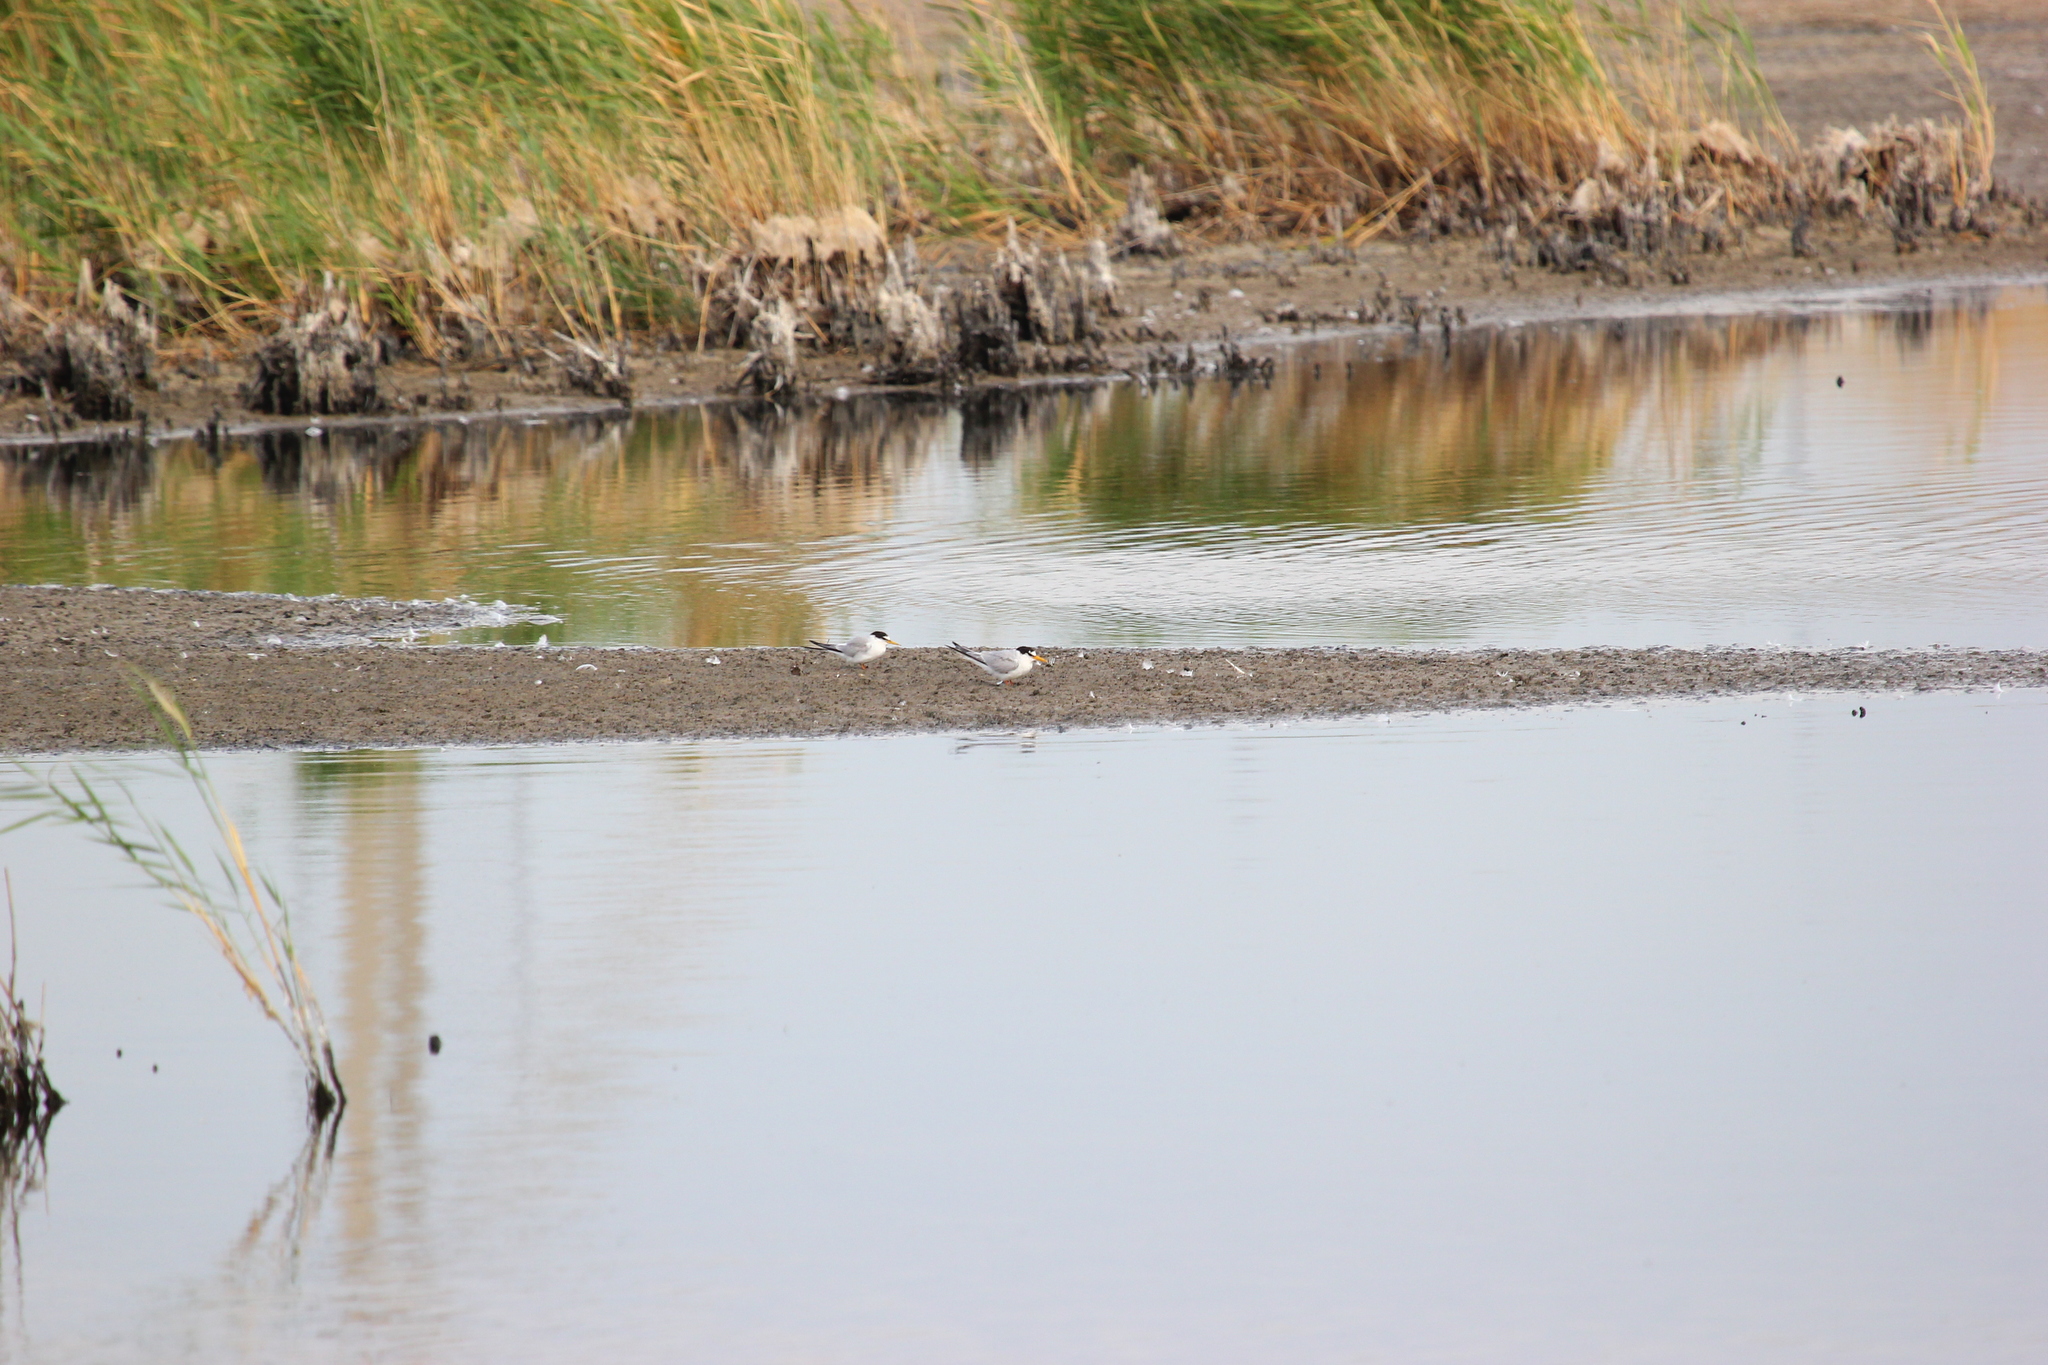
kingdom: Animalia
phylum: Chordata
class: Aves
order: Charadriiformes
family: Laridae
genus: Sternula
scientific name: Sternula albifrons
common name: Little tern
